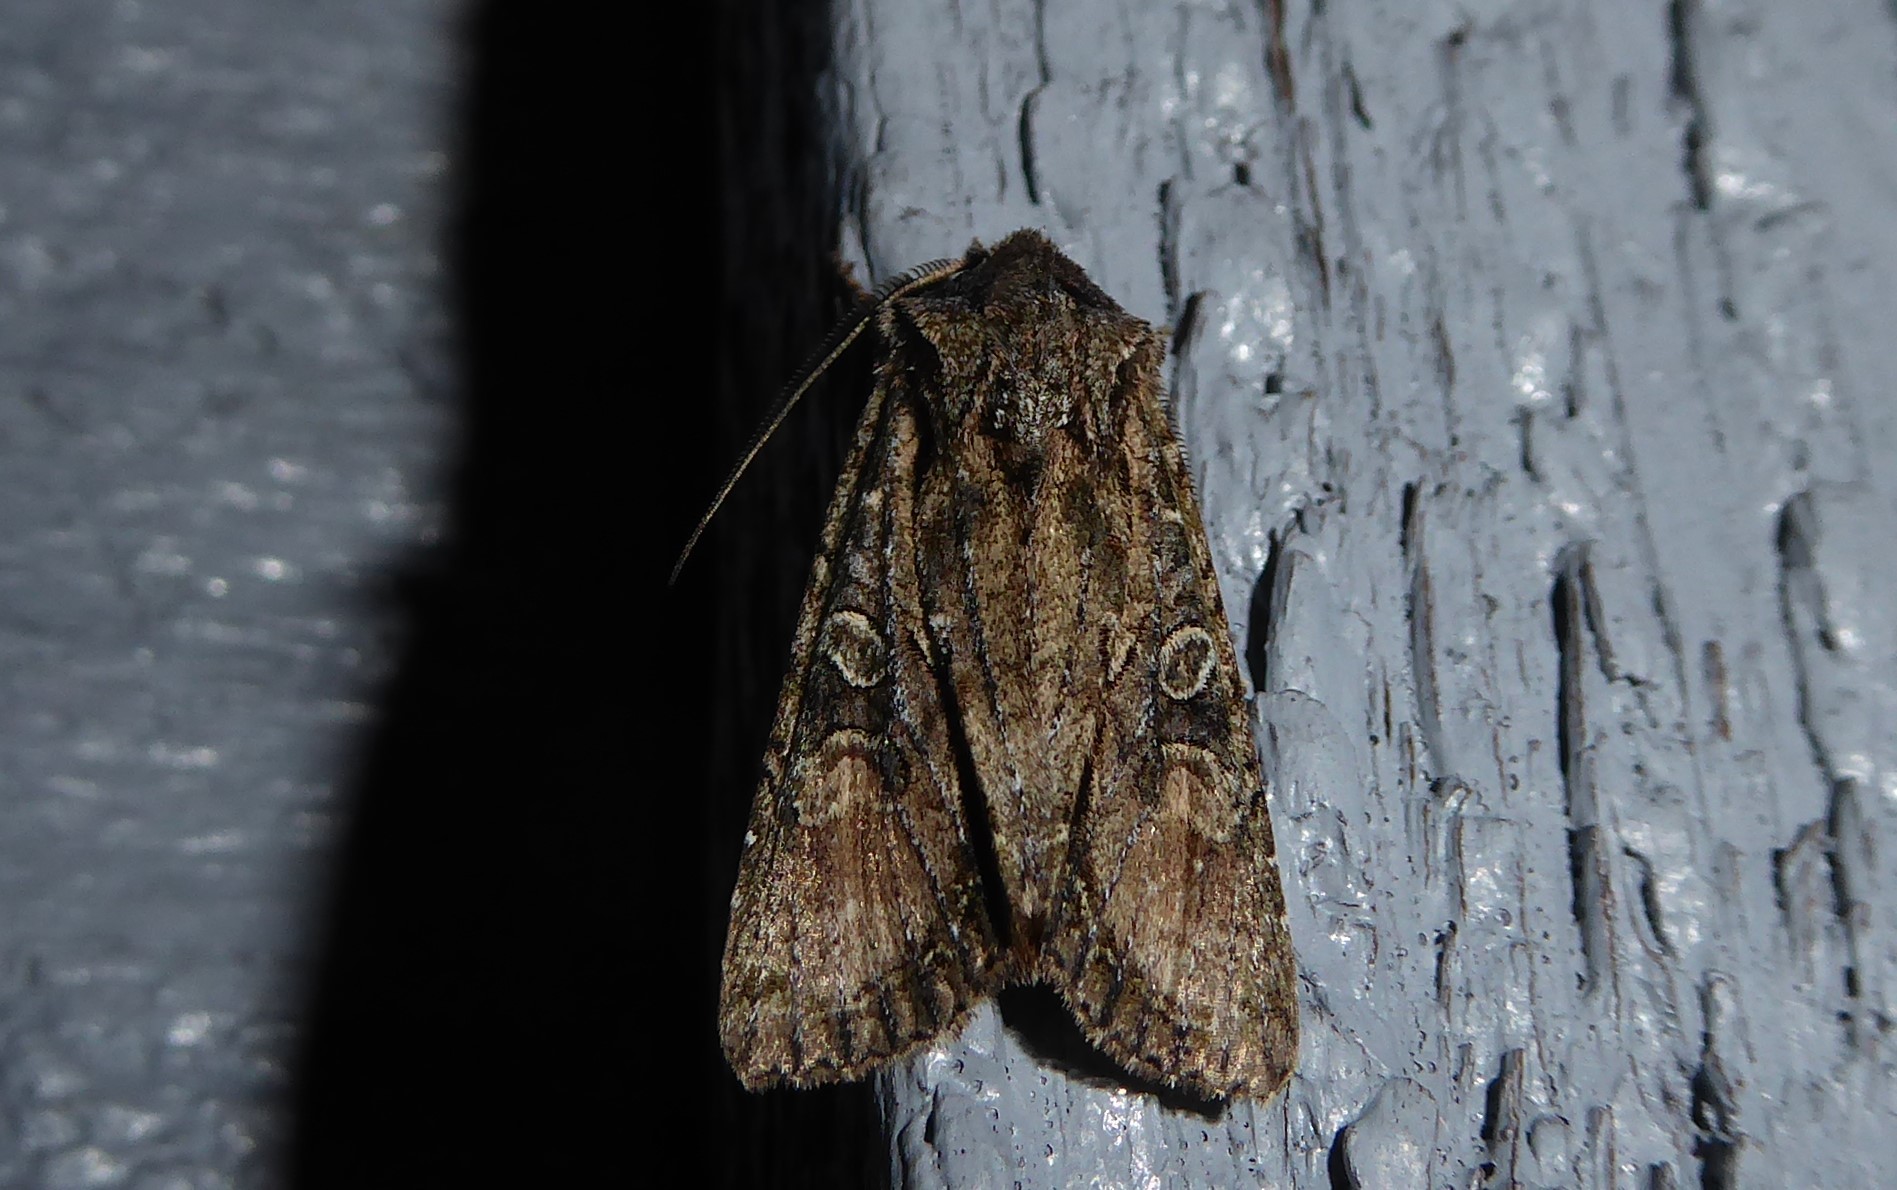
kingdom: Animalia
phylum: Arthropoda
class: Insecta
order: Lepidoptera
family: Noctuidae
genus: Ichneutica
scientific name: Ichneutica mutans
